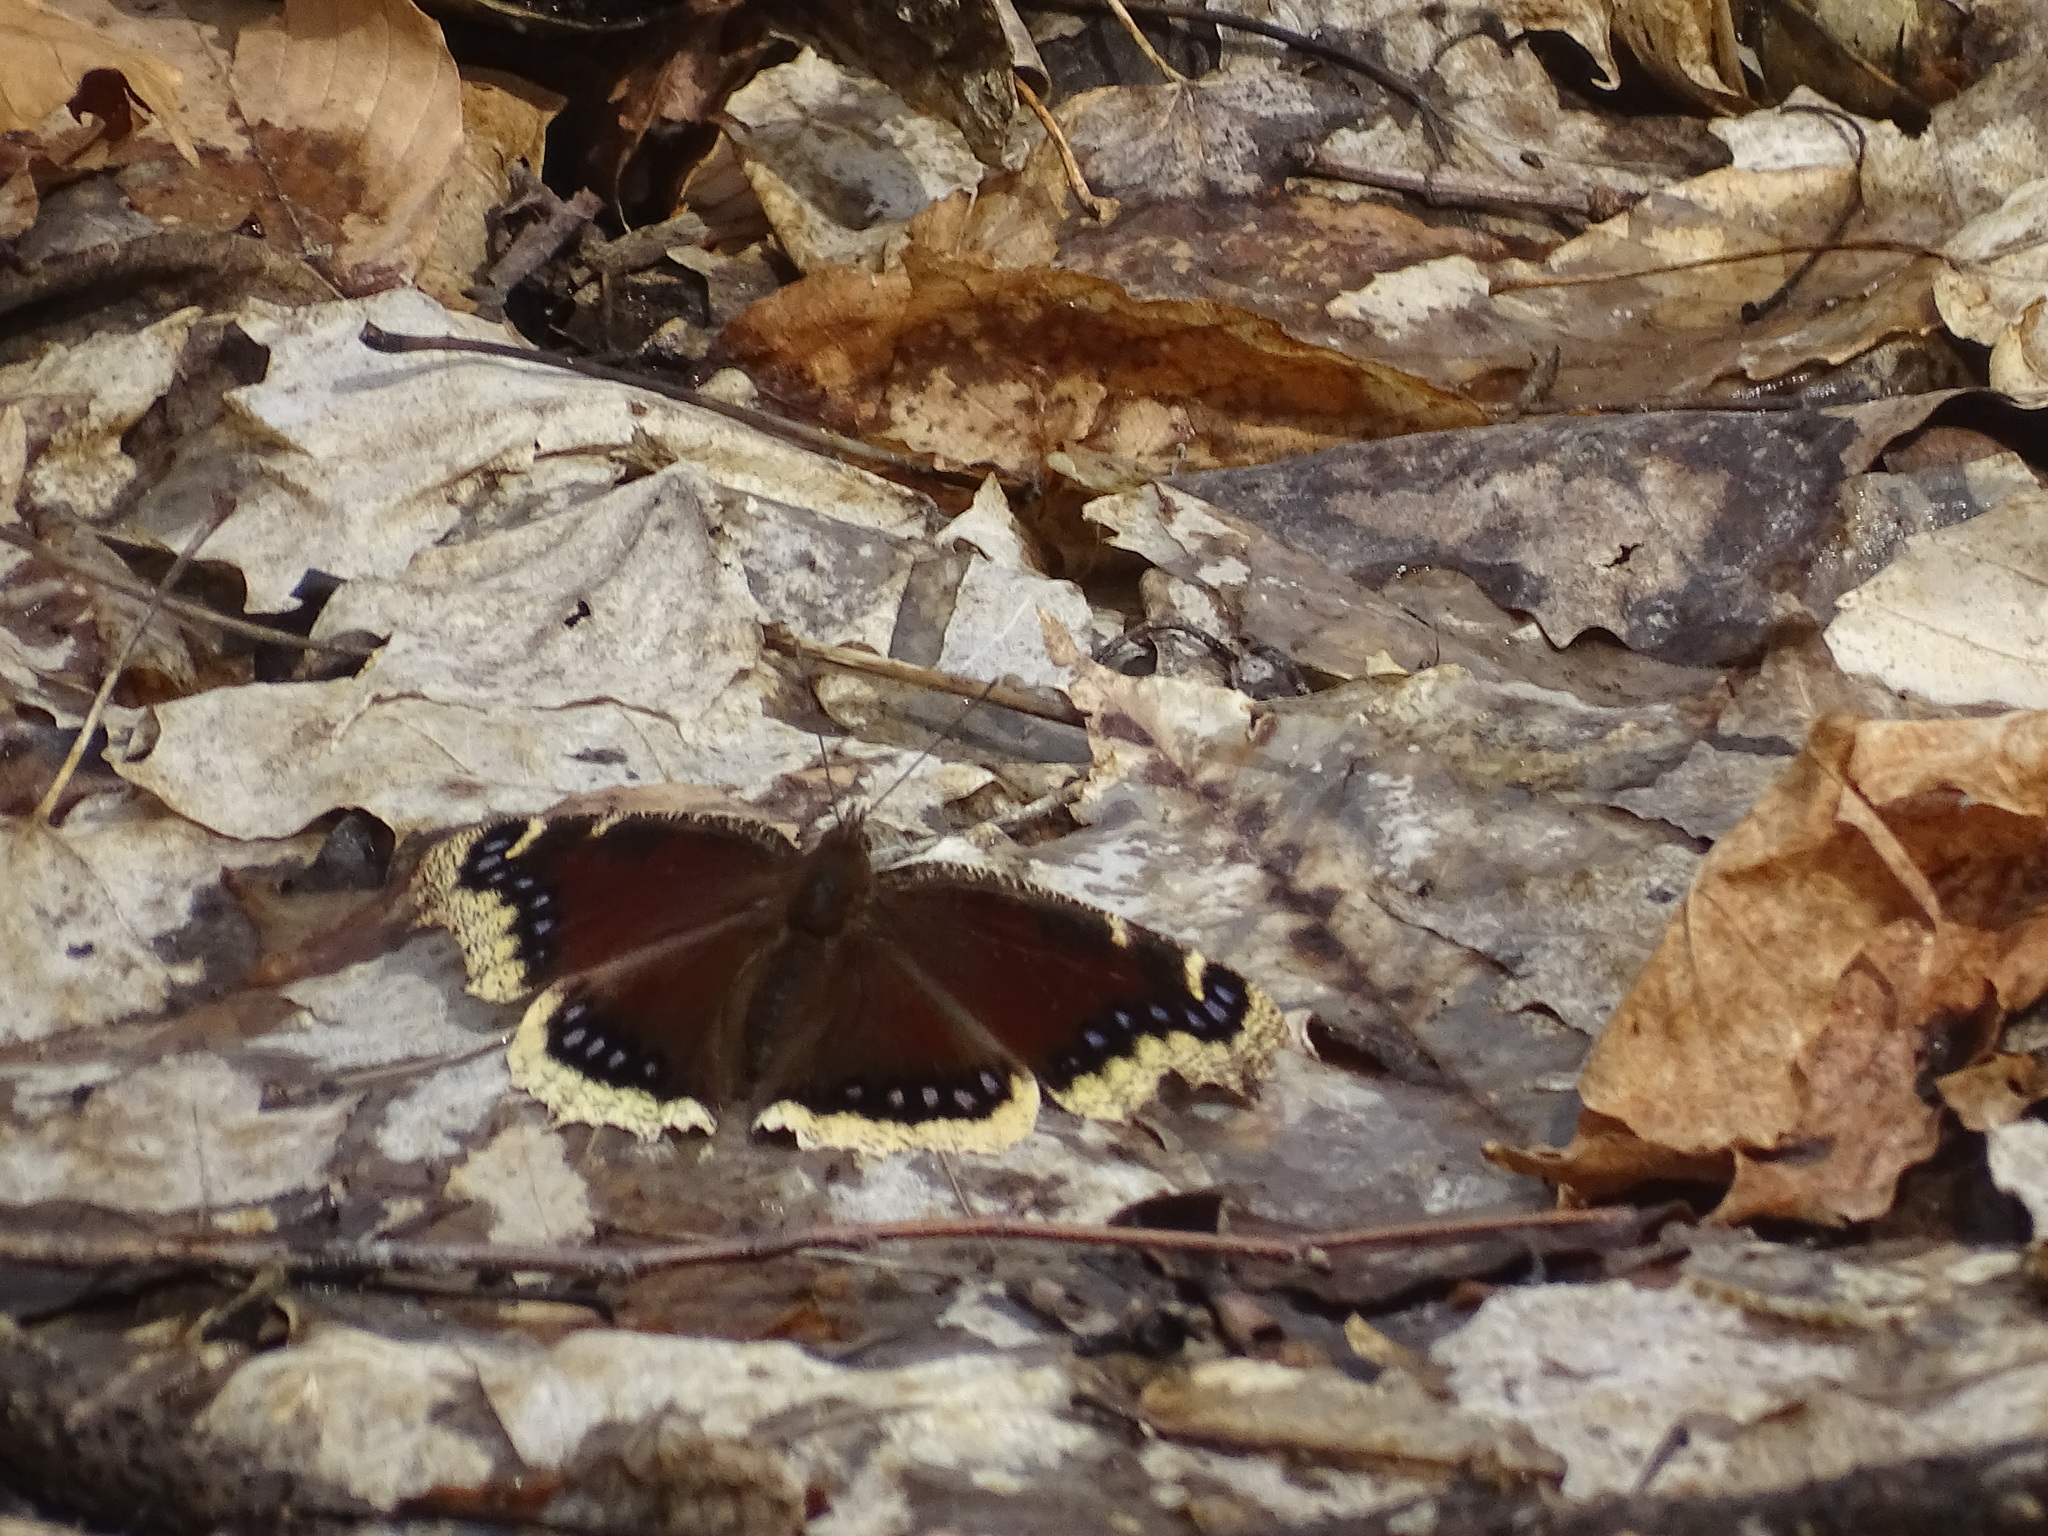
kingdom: Animalia
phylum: Arthropoda
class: Insecta
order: Lepidoptera
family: Nymphalidae
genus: Nymphalis
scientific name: Nymphalis antiopa
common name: Camberwell beauty
